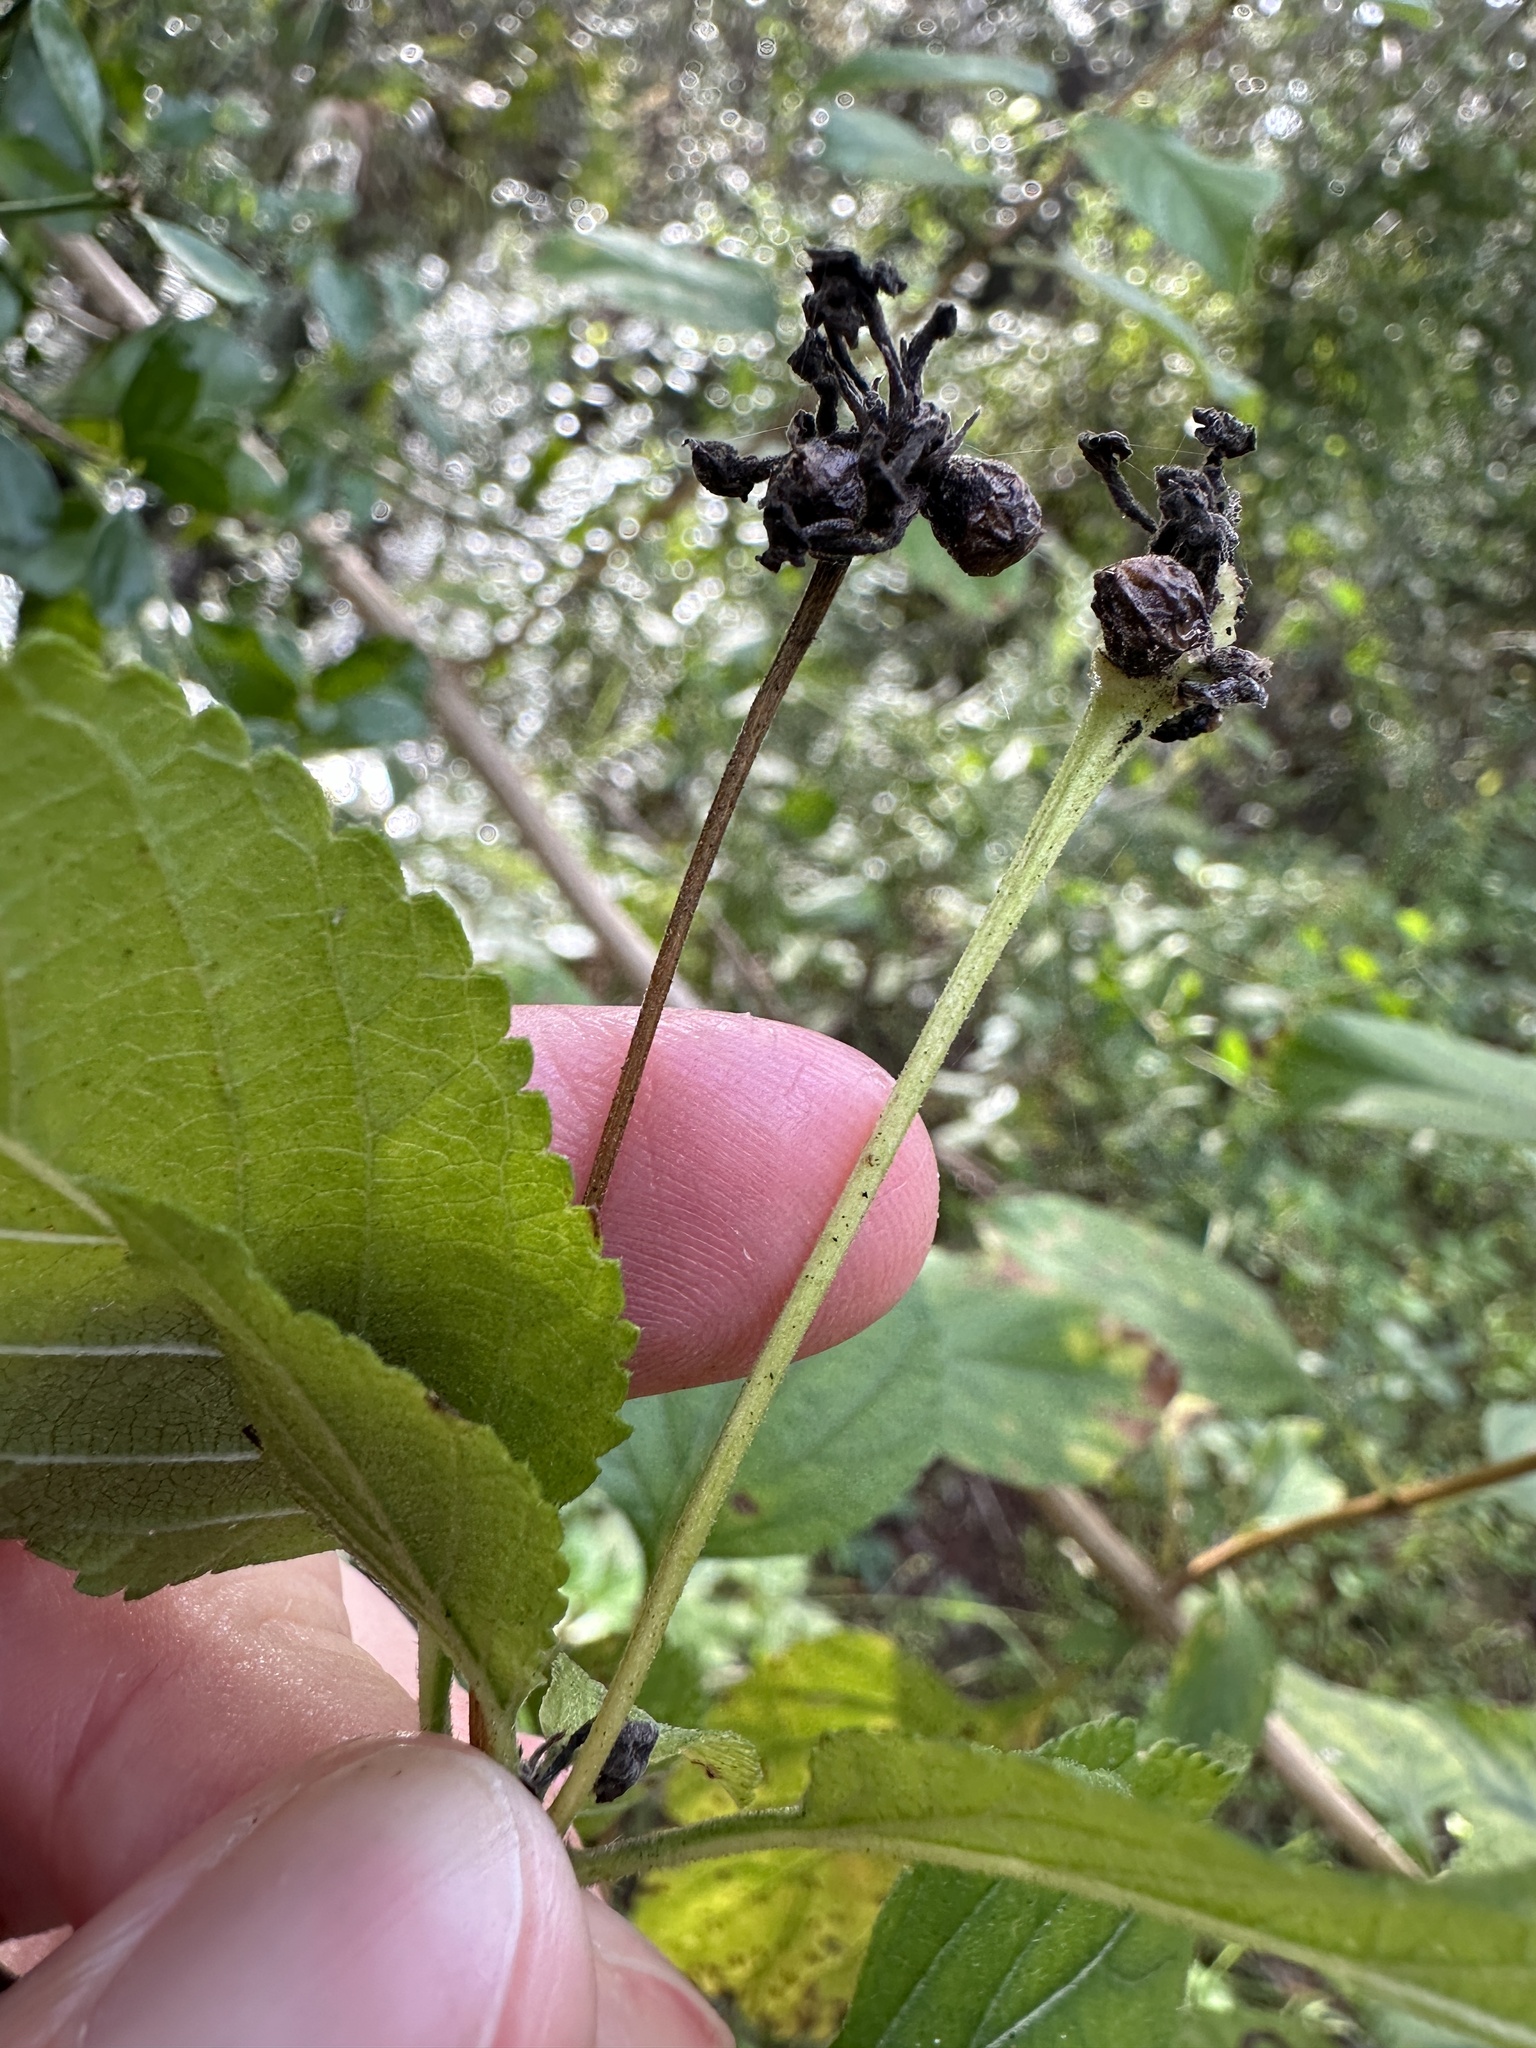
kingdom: Plantae
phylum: Tracheophyta
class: Magnoliopsida
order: Lamiales
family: Verbenaceae
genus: Lantana
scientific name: Lantana
